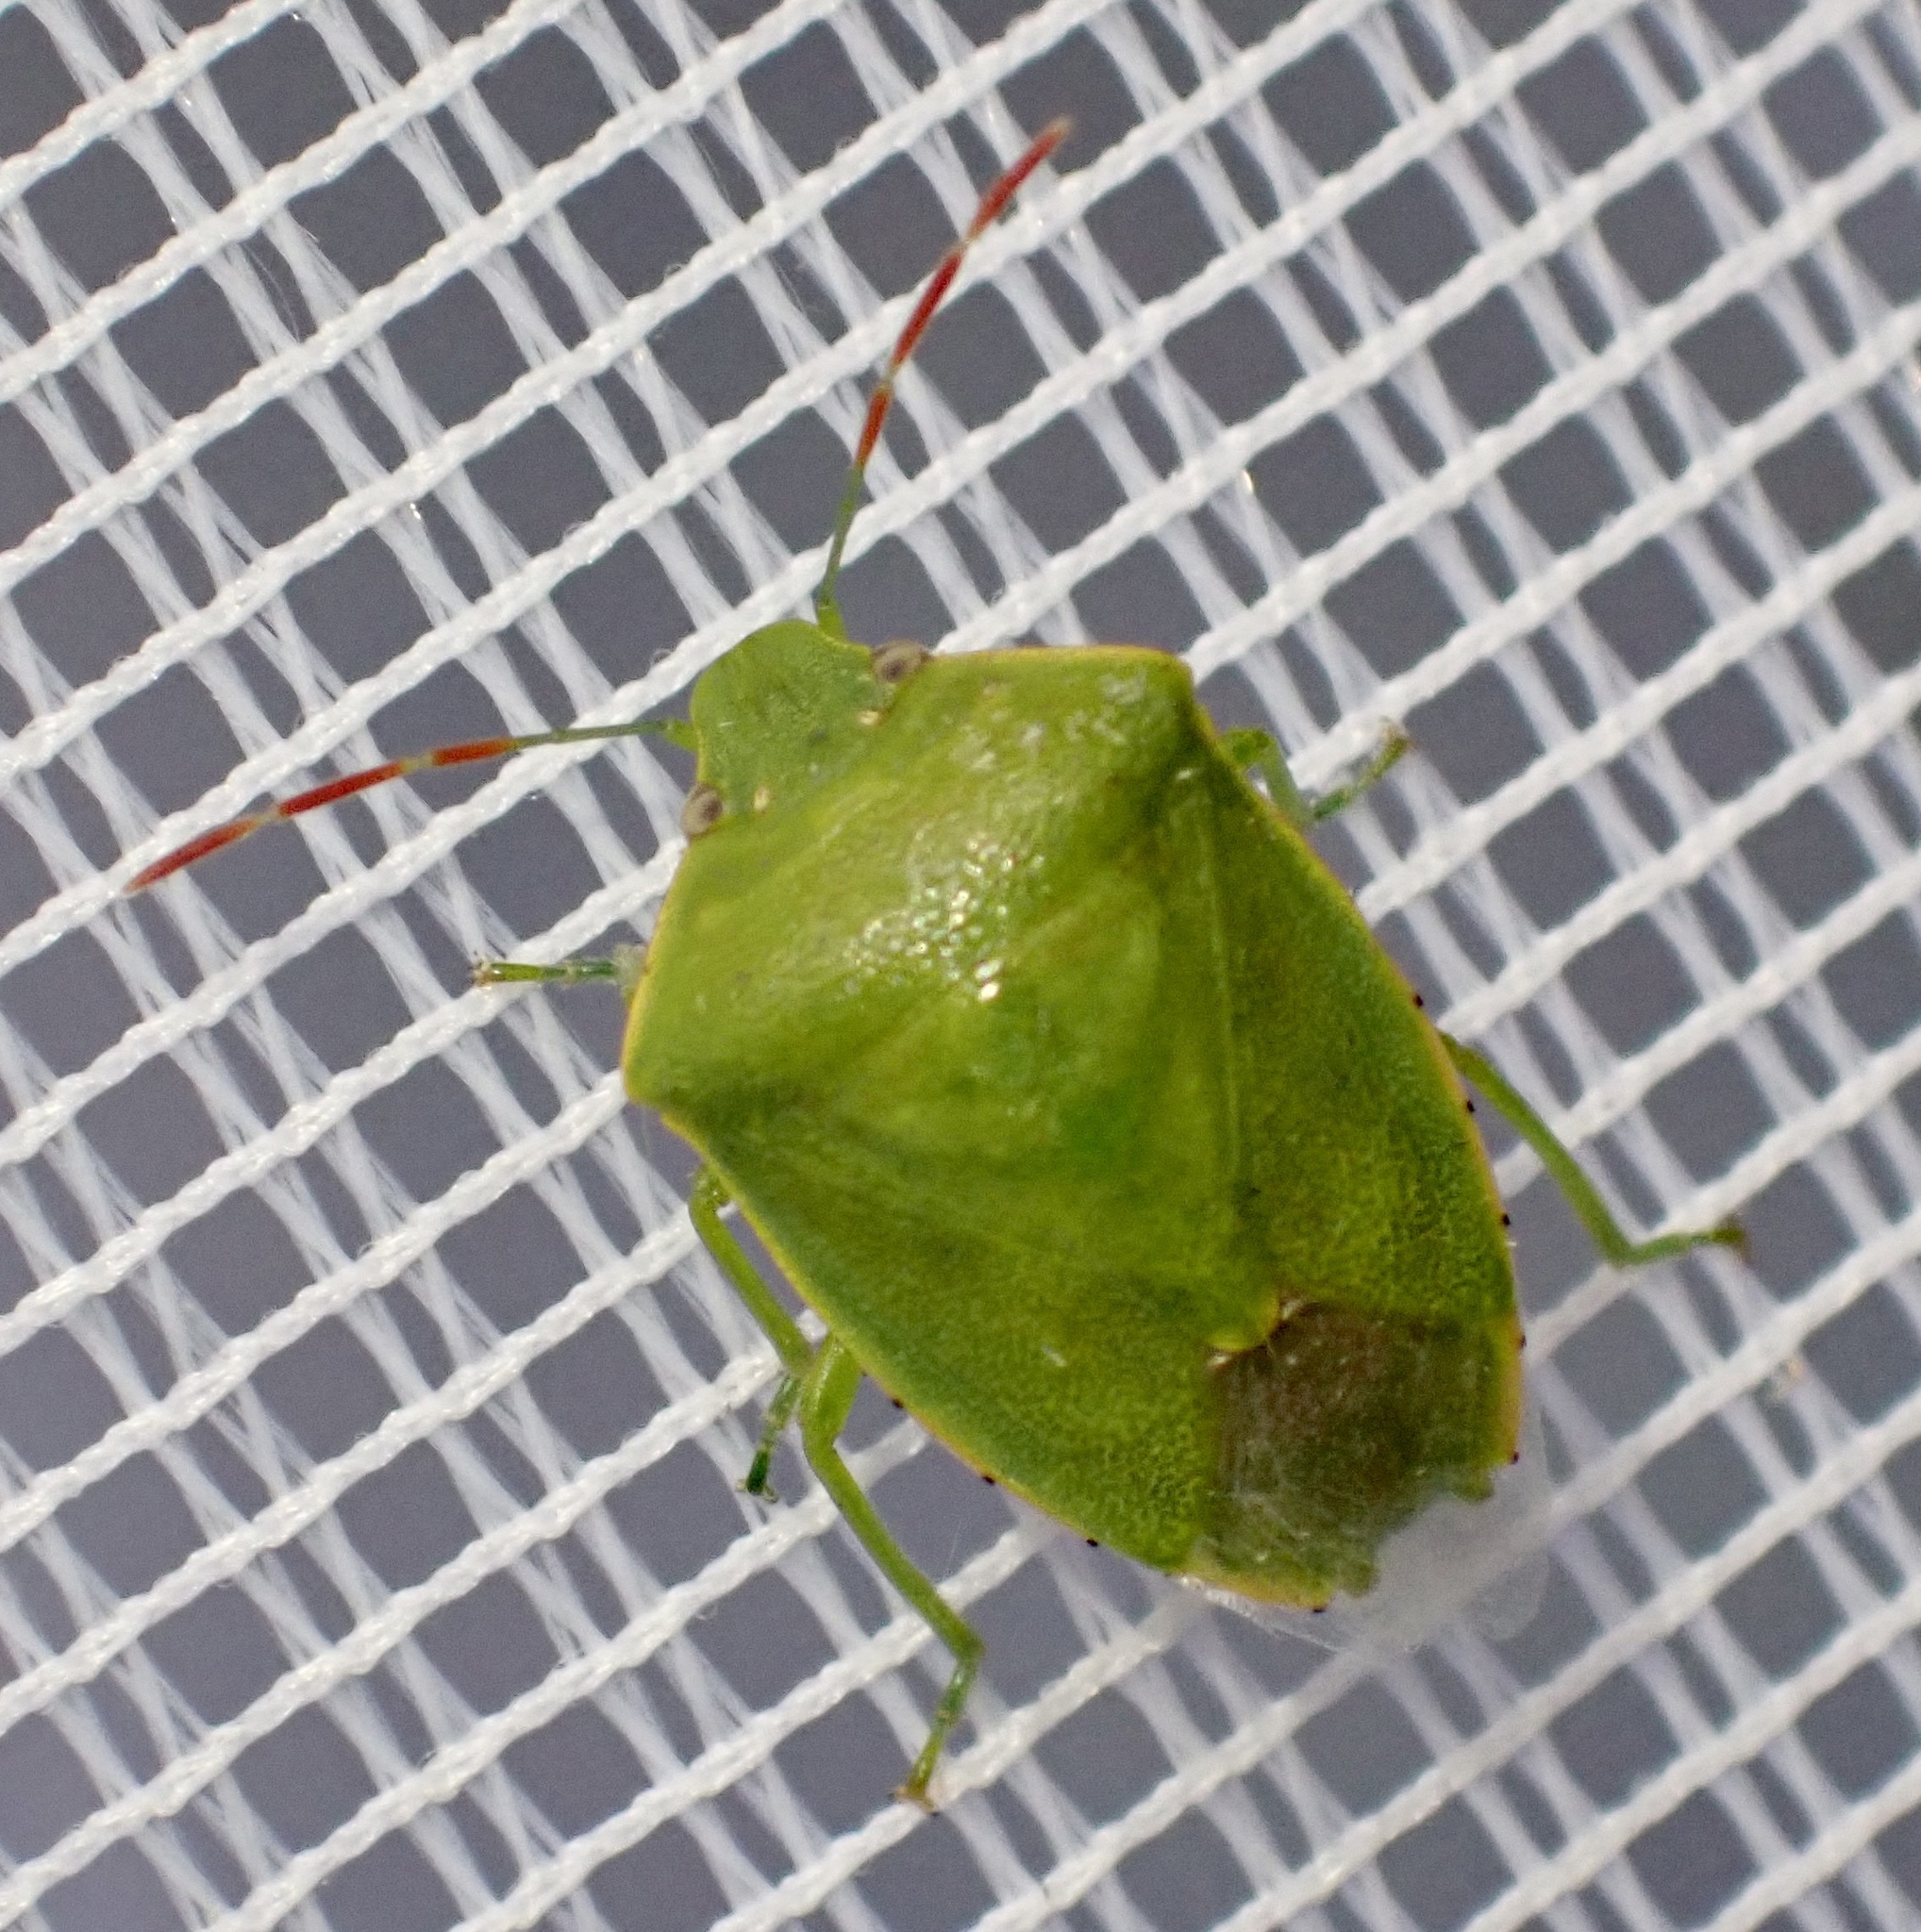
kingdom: Animalia
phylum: Arthropoda
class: Insecta
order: Hemiptera
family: Pentatomidae
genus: Acrosternum
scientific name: Acrosternum heegeri
